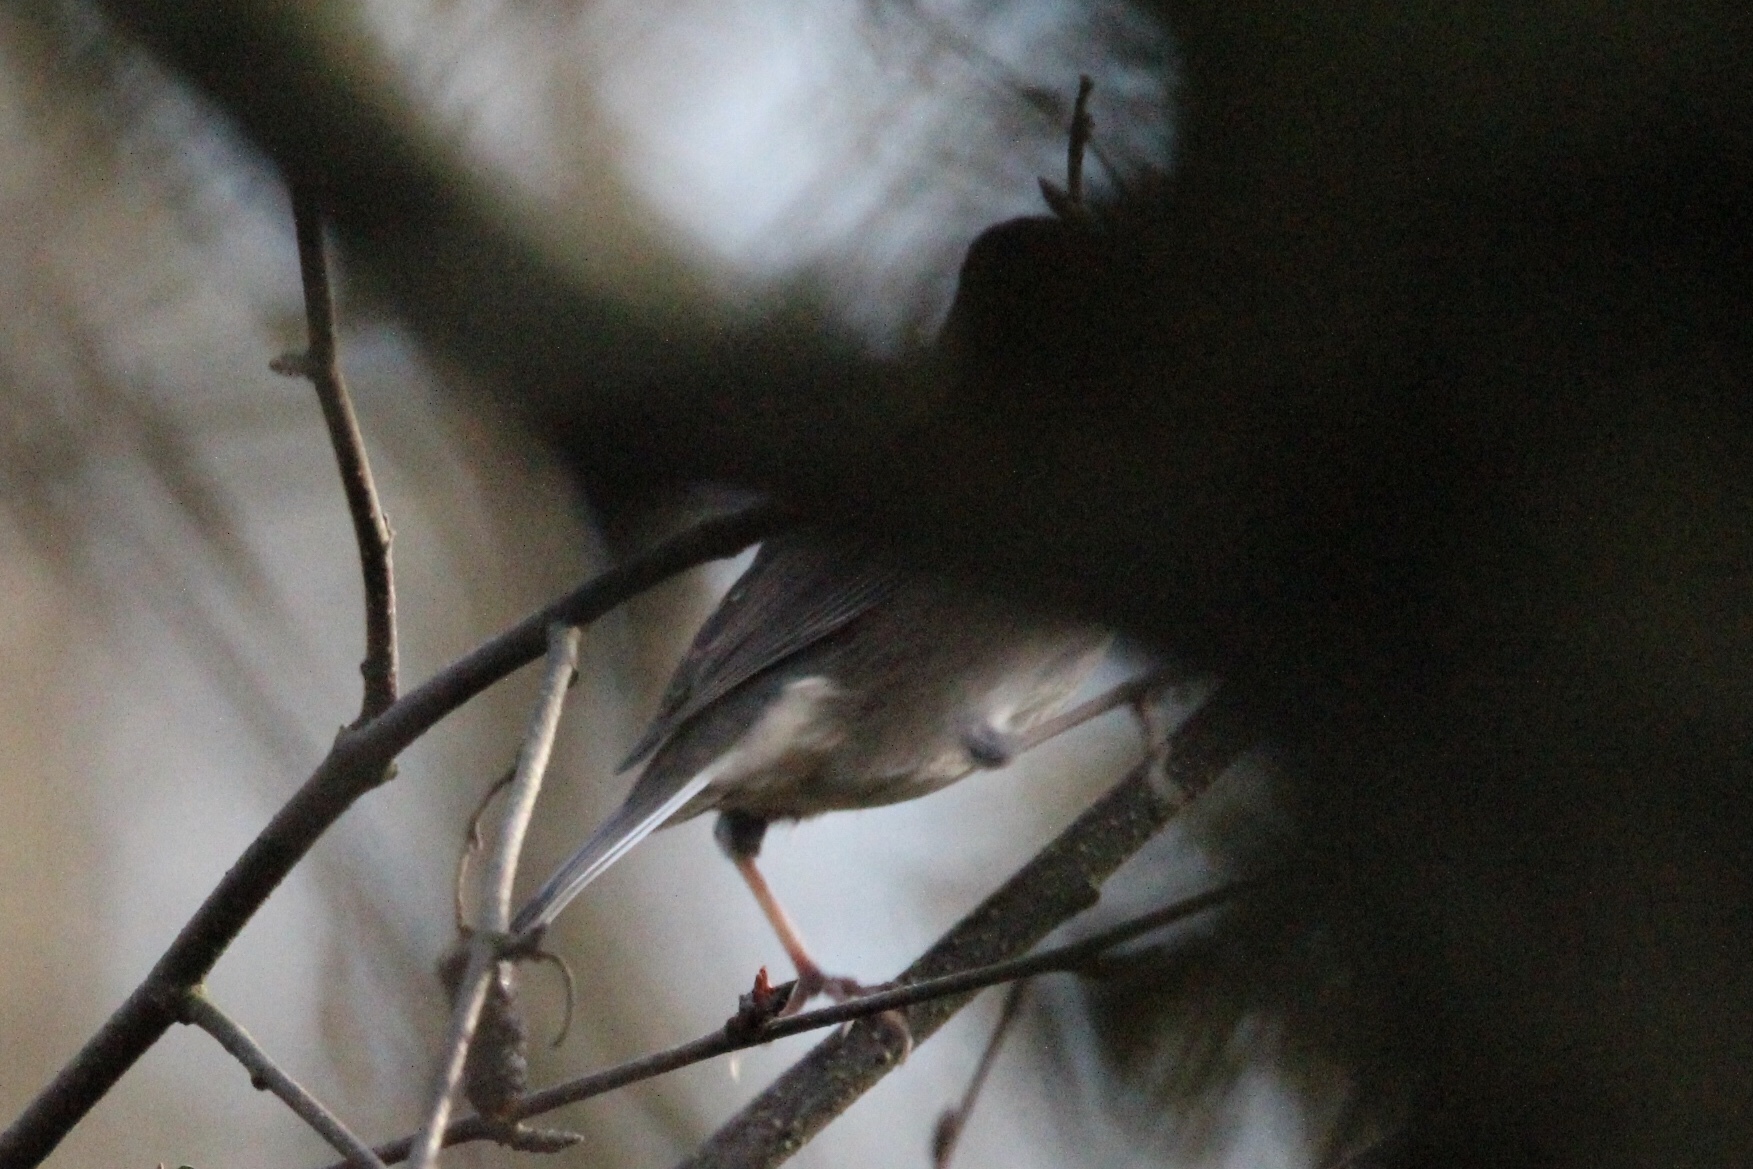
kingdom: Animalia
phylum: Chordata
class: Aves
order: Passeriformes
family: Passerellidae
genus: Junco
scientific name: Junco hyemalis
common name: Dark-eyed junco
